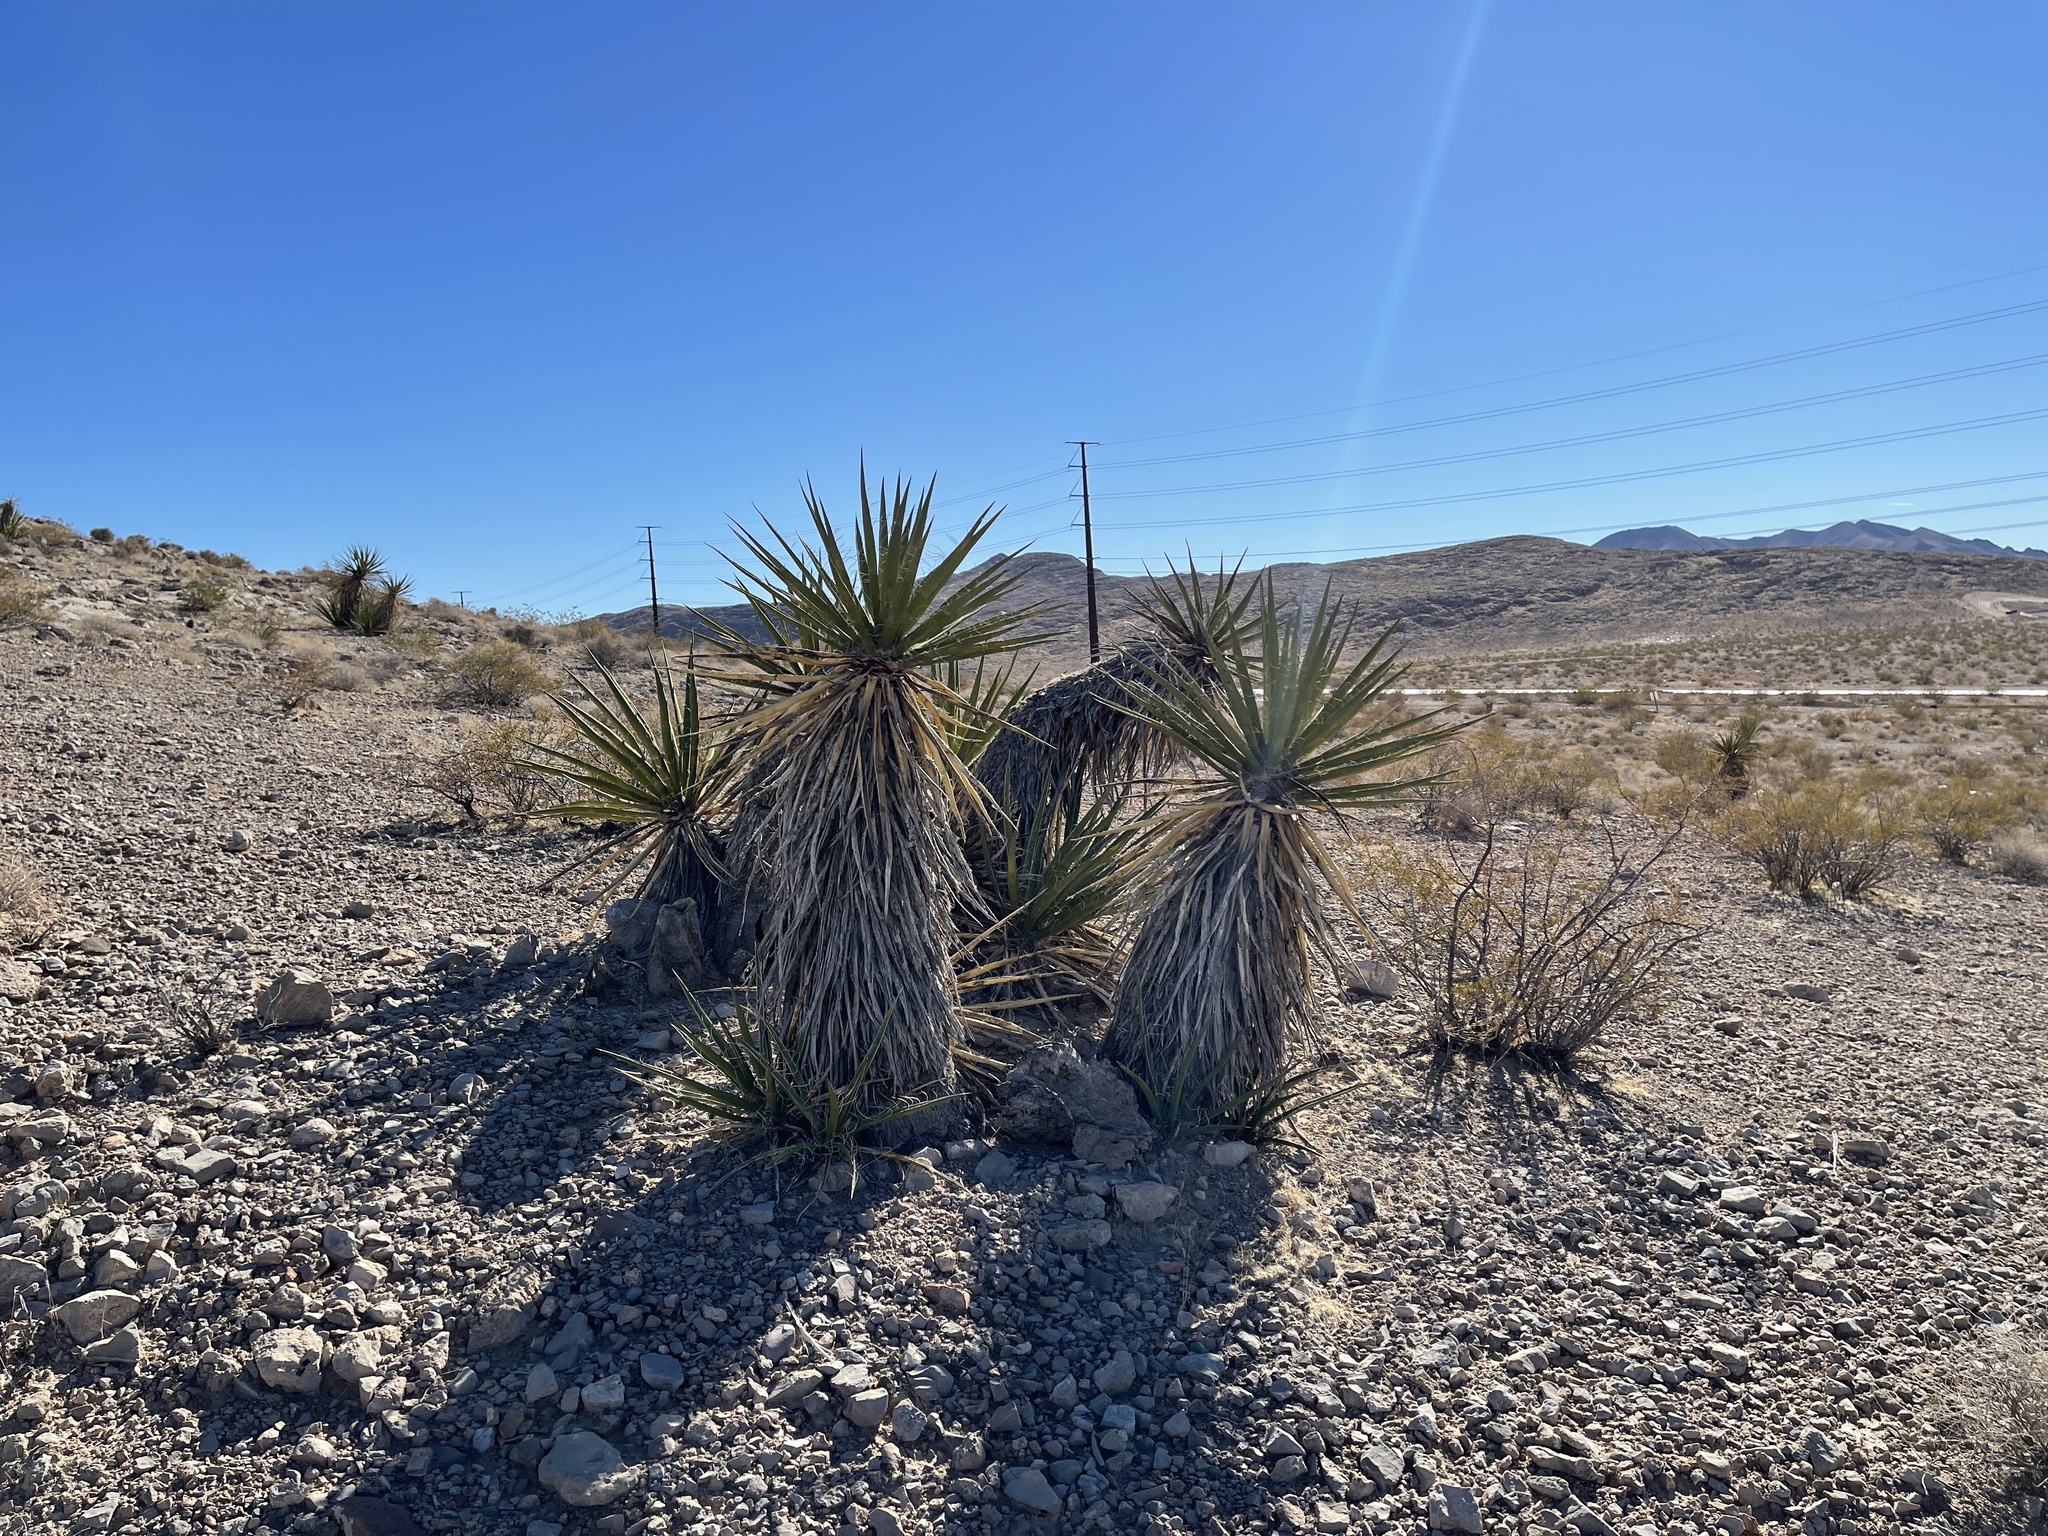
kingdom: Plantae
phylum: Tracheophyta
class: Liliopsida
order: Asparagales
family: Asparagaceae
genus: Yucca
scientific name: Yucca schidigera
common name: Mojave yucca
